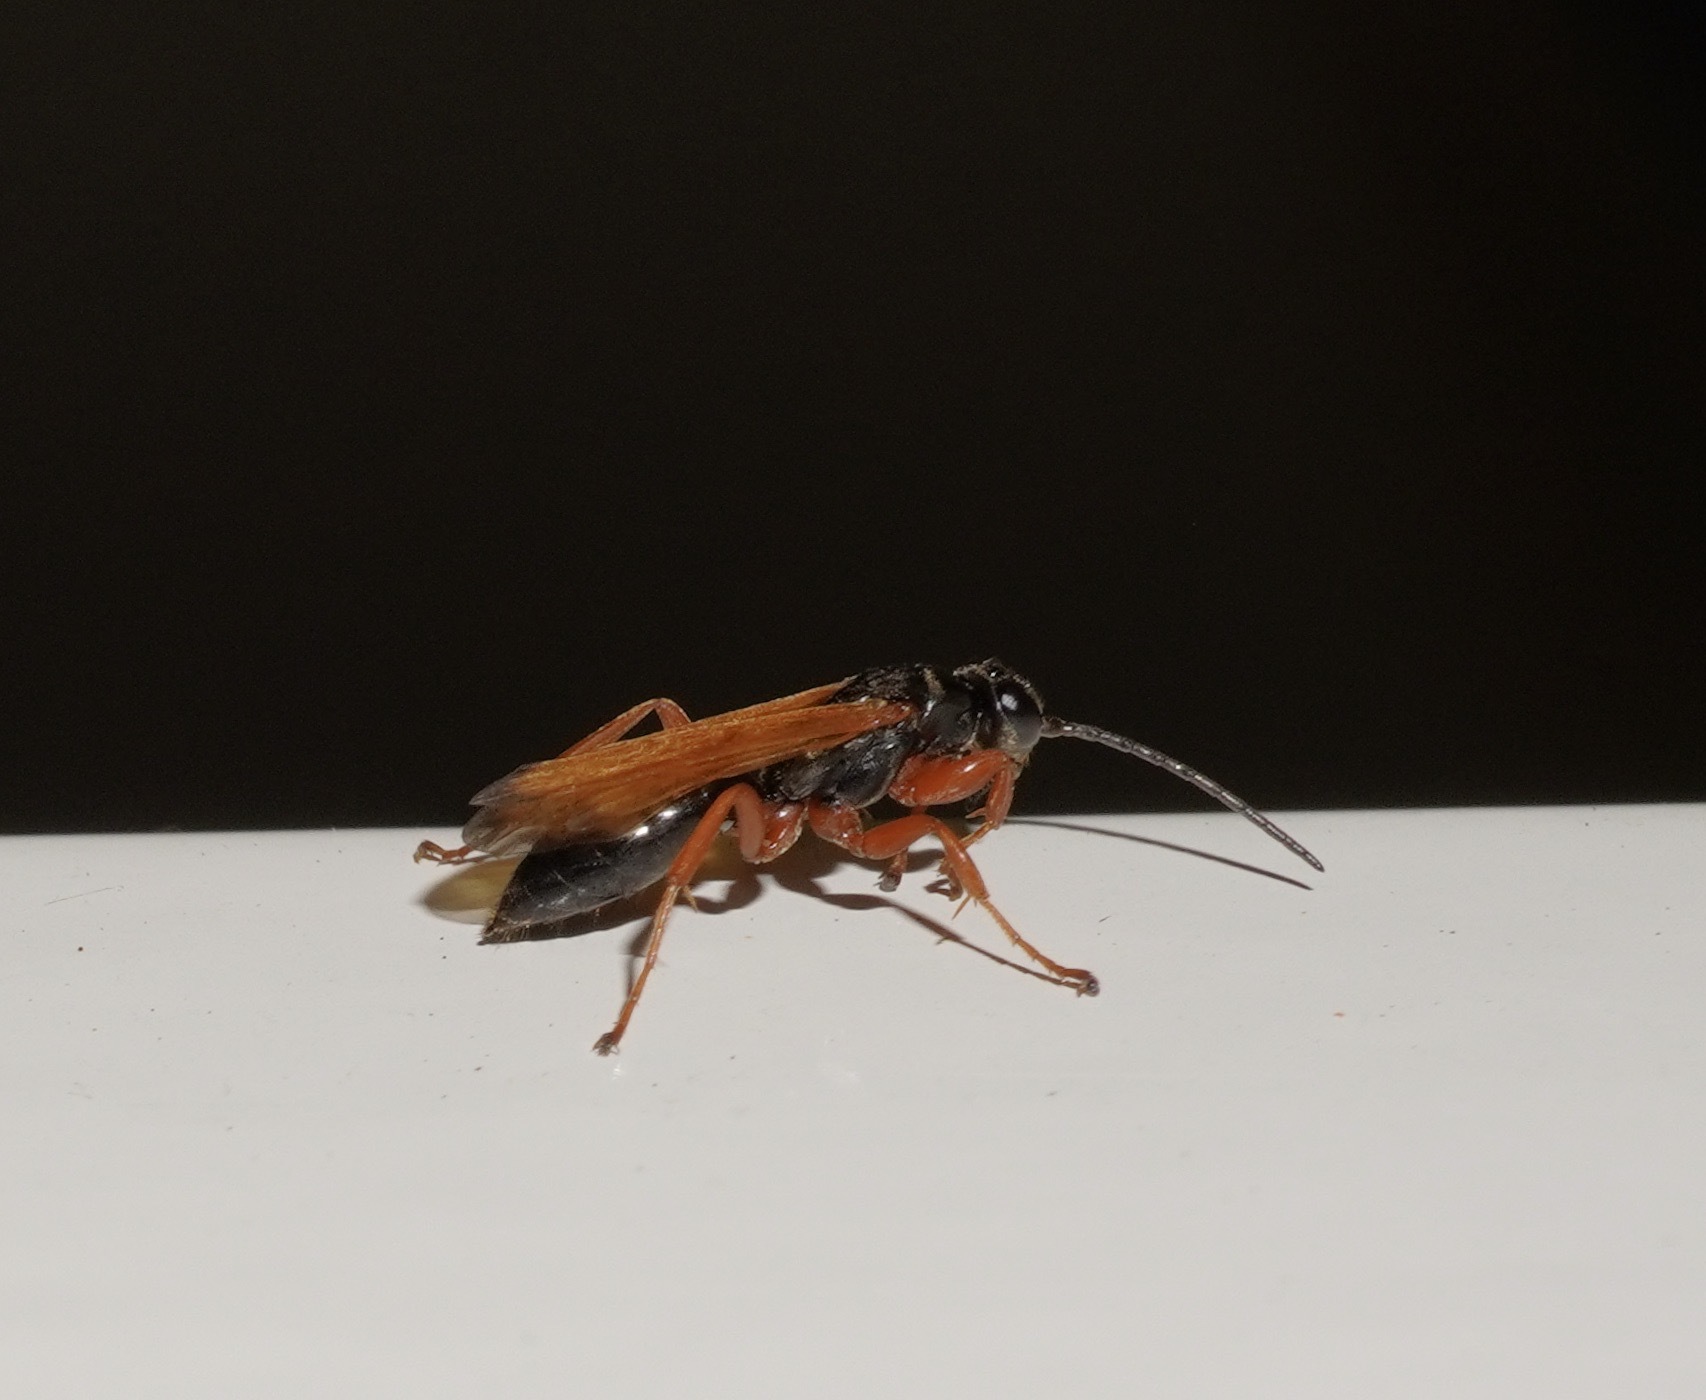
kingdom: Animalia
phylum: Arthropoda
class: Insecta
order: Hymenoptera
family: Pompilidae
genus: Priocnemis
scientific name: Priocnemis conformis
